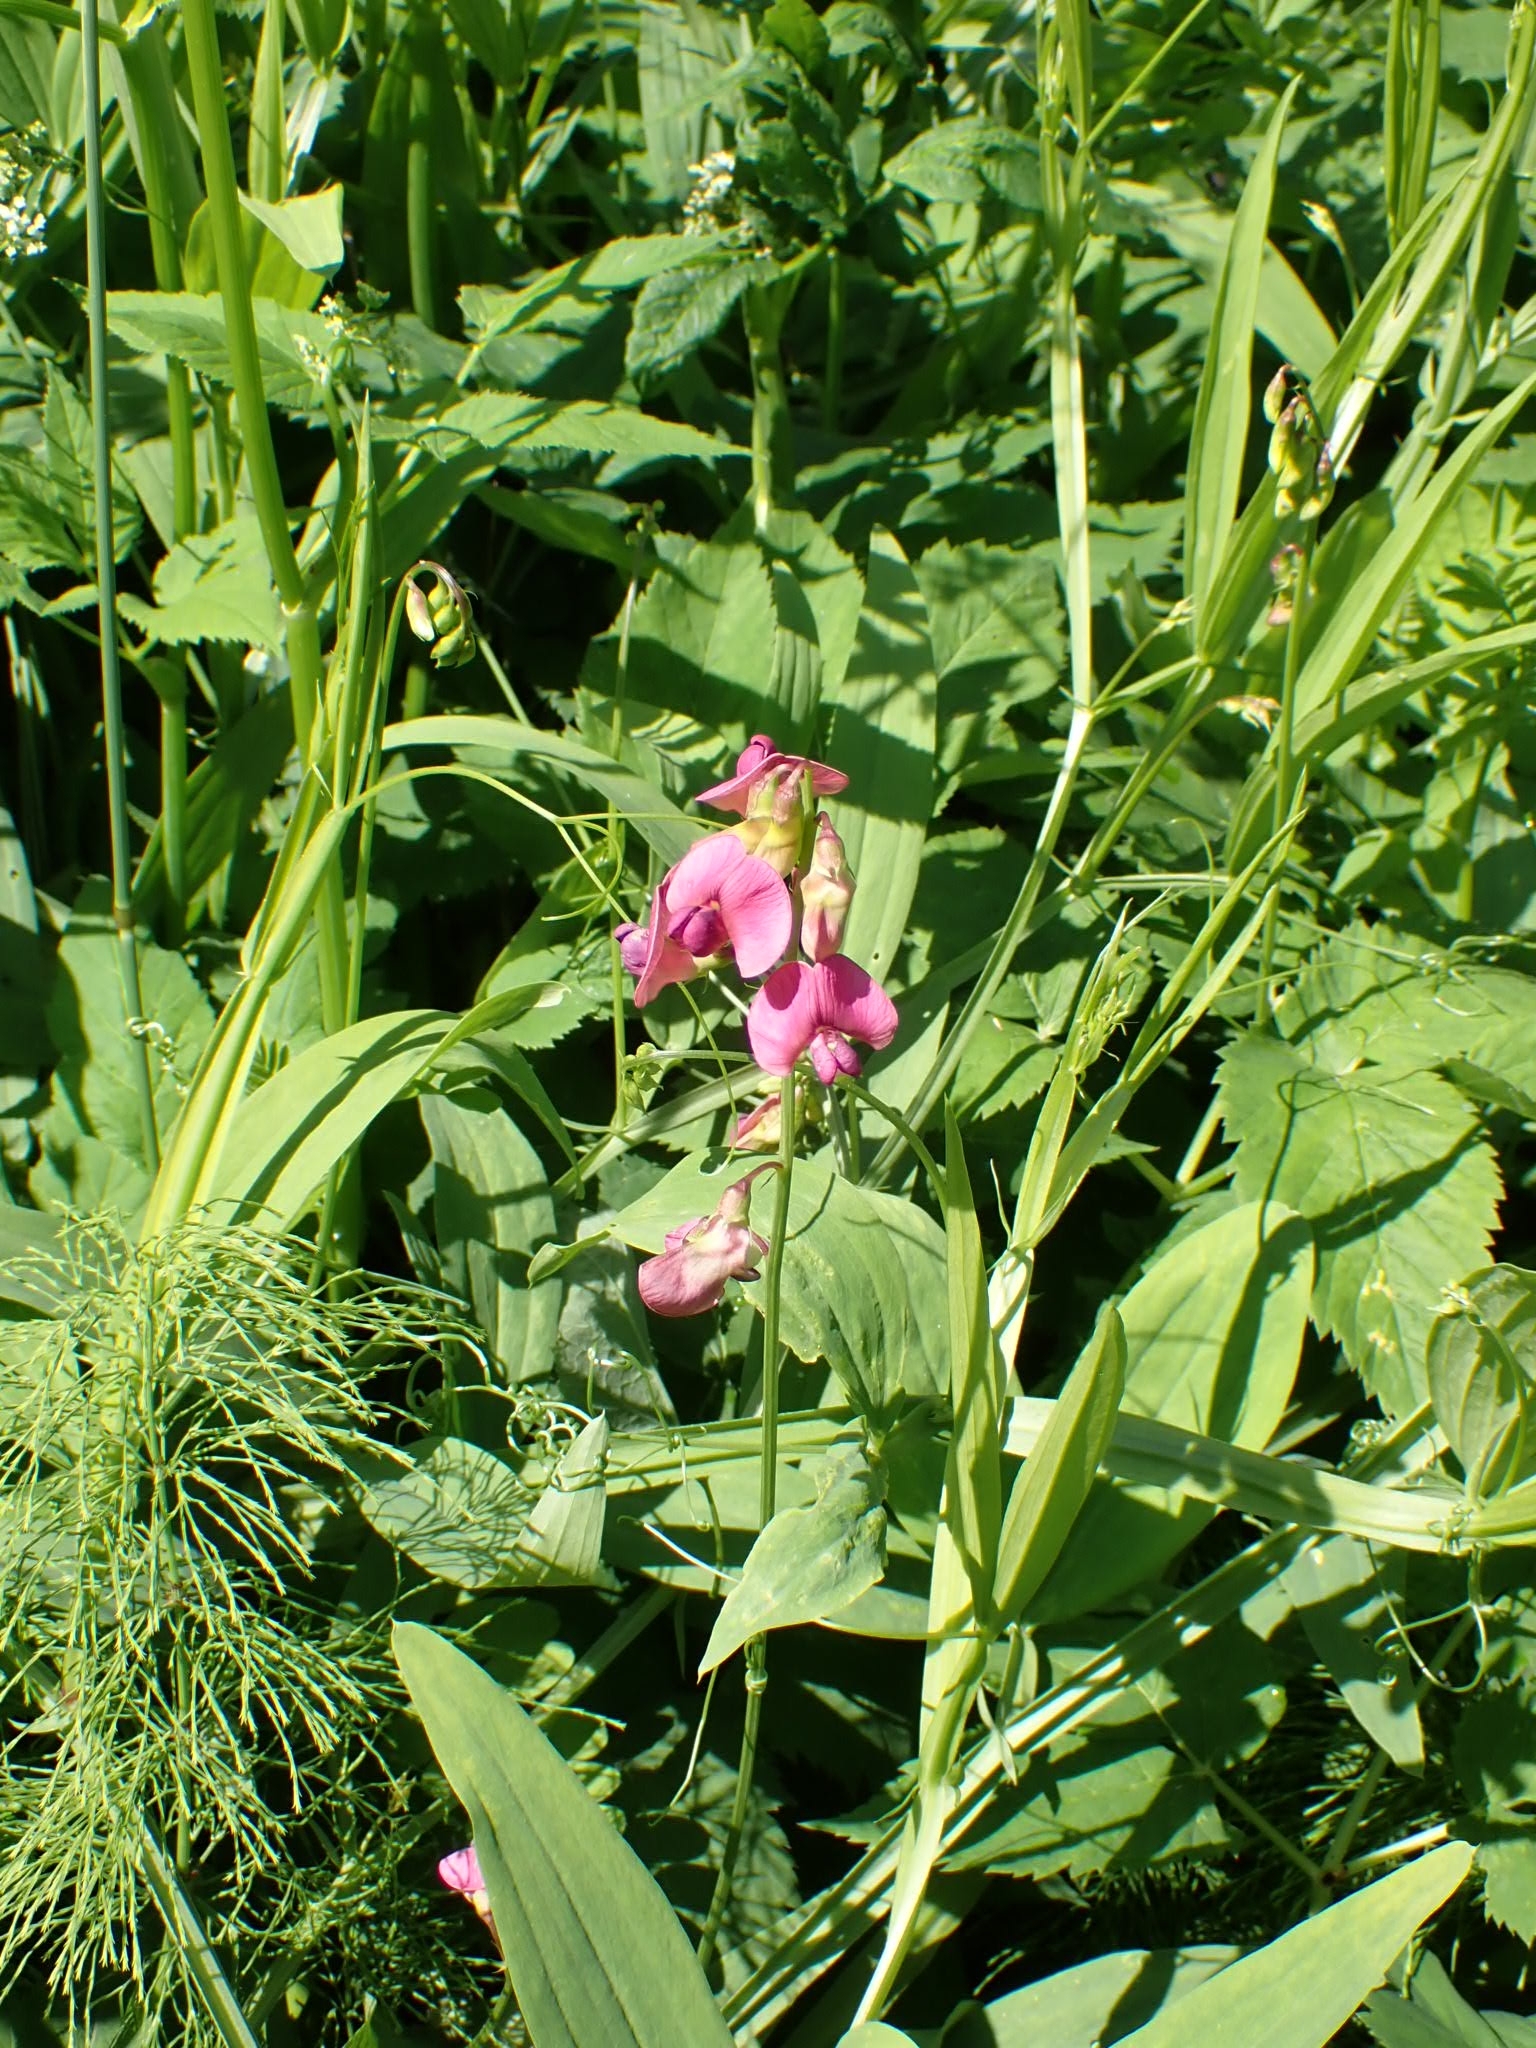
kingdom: Plantae
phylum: Tracheophyta
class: Magnoliopsida
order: Fabales
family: Fabaceae
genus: Lathyrus
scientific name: Lathyrus sylvestris
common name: Flat pea
